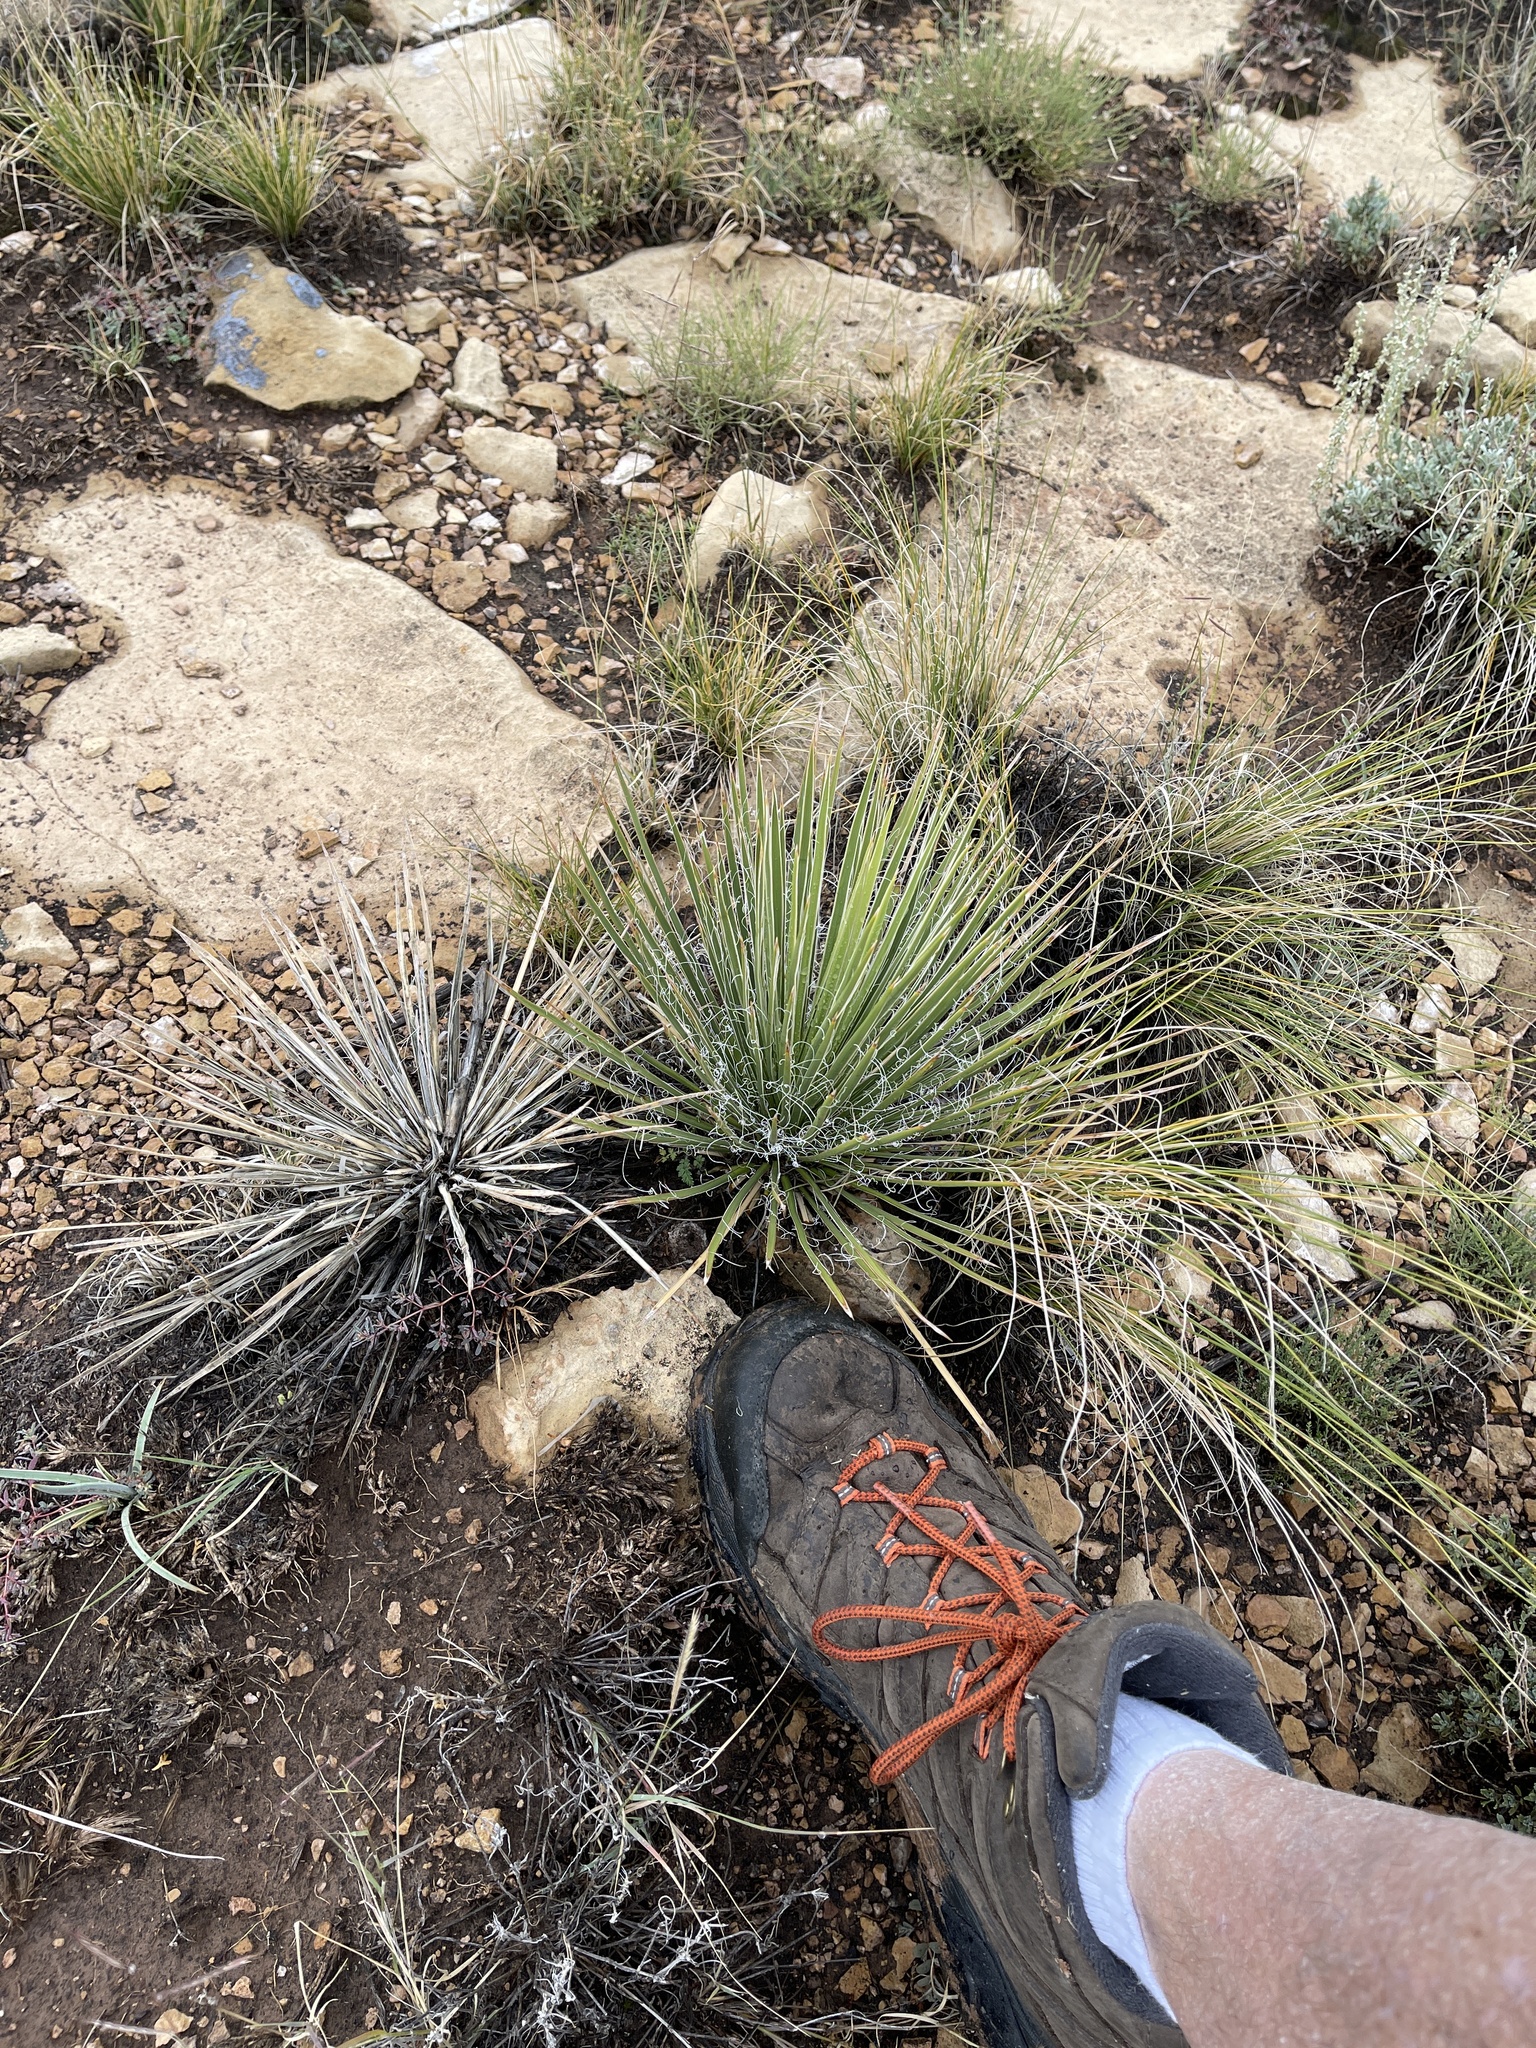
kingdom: Plantae
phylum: Tracheophyta
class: Liliopsida
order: Asparagales
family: Asparagaceae
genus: Yucca
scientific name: Yucca angustissima
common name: Narrowleaf yucca
